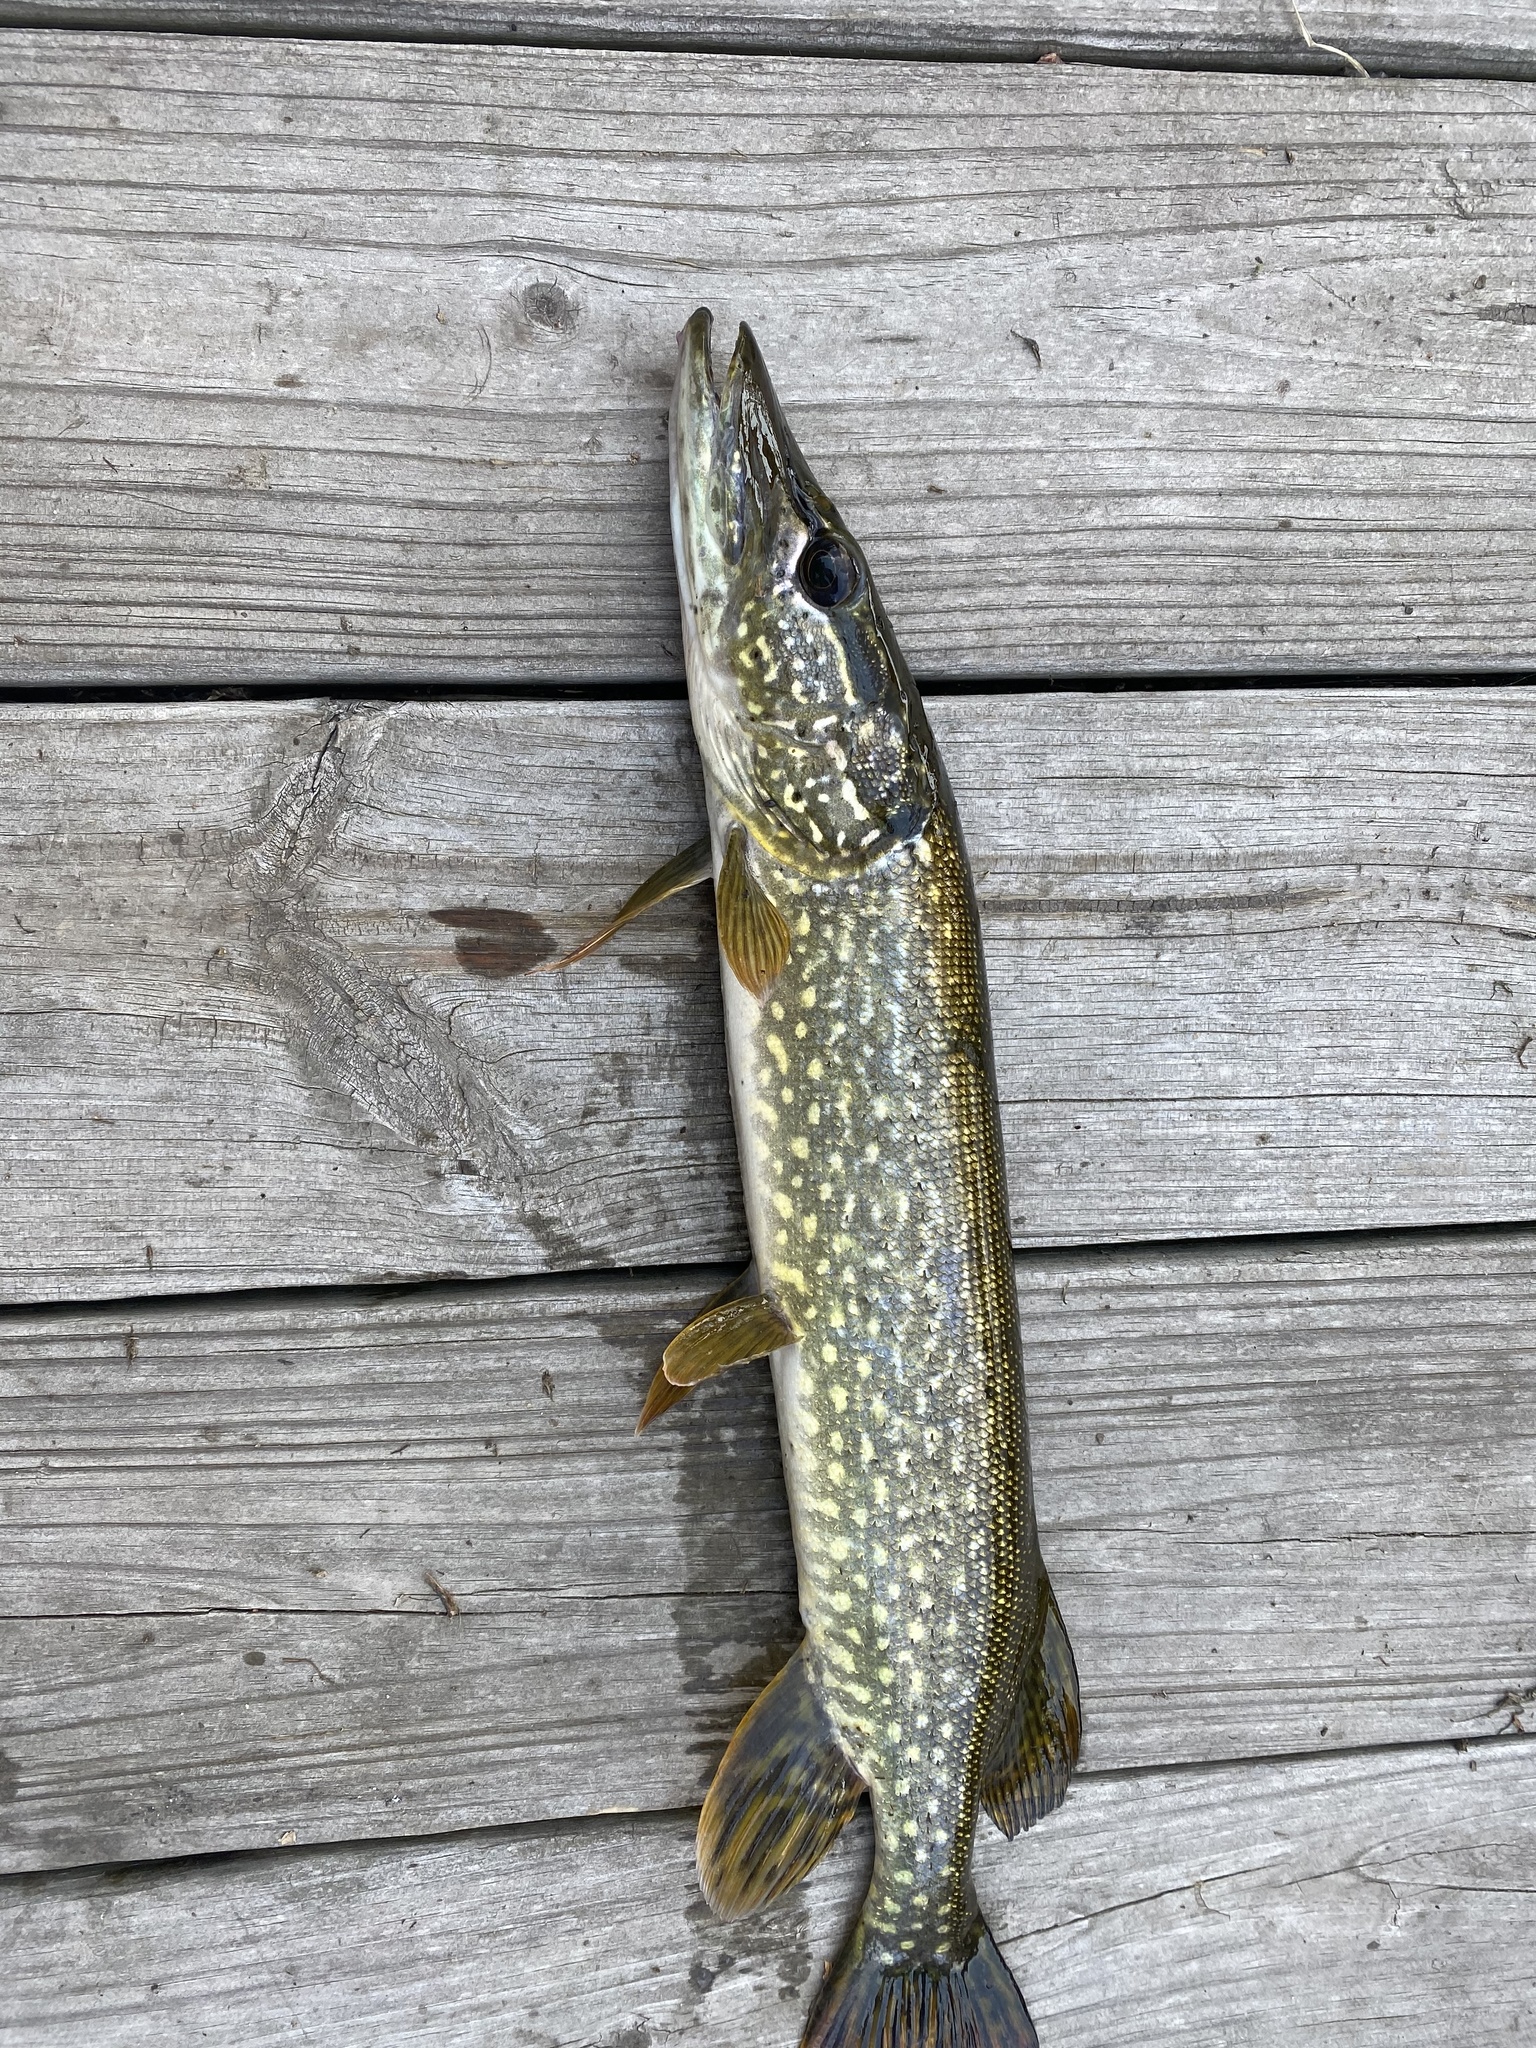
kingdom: Animalia
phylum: Chordata
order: Esociformes
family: Esocidae
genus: Esox
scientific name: Esox lucius
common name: Northern pike
